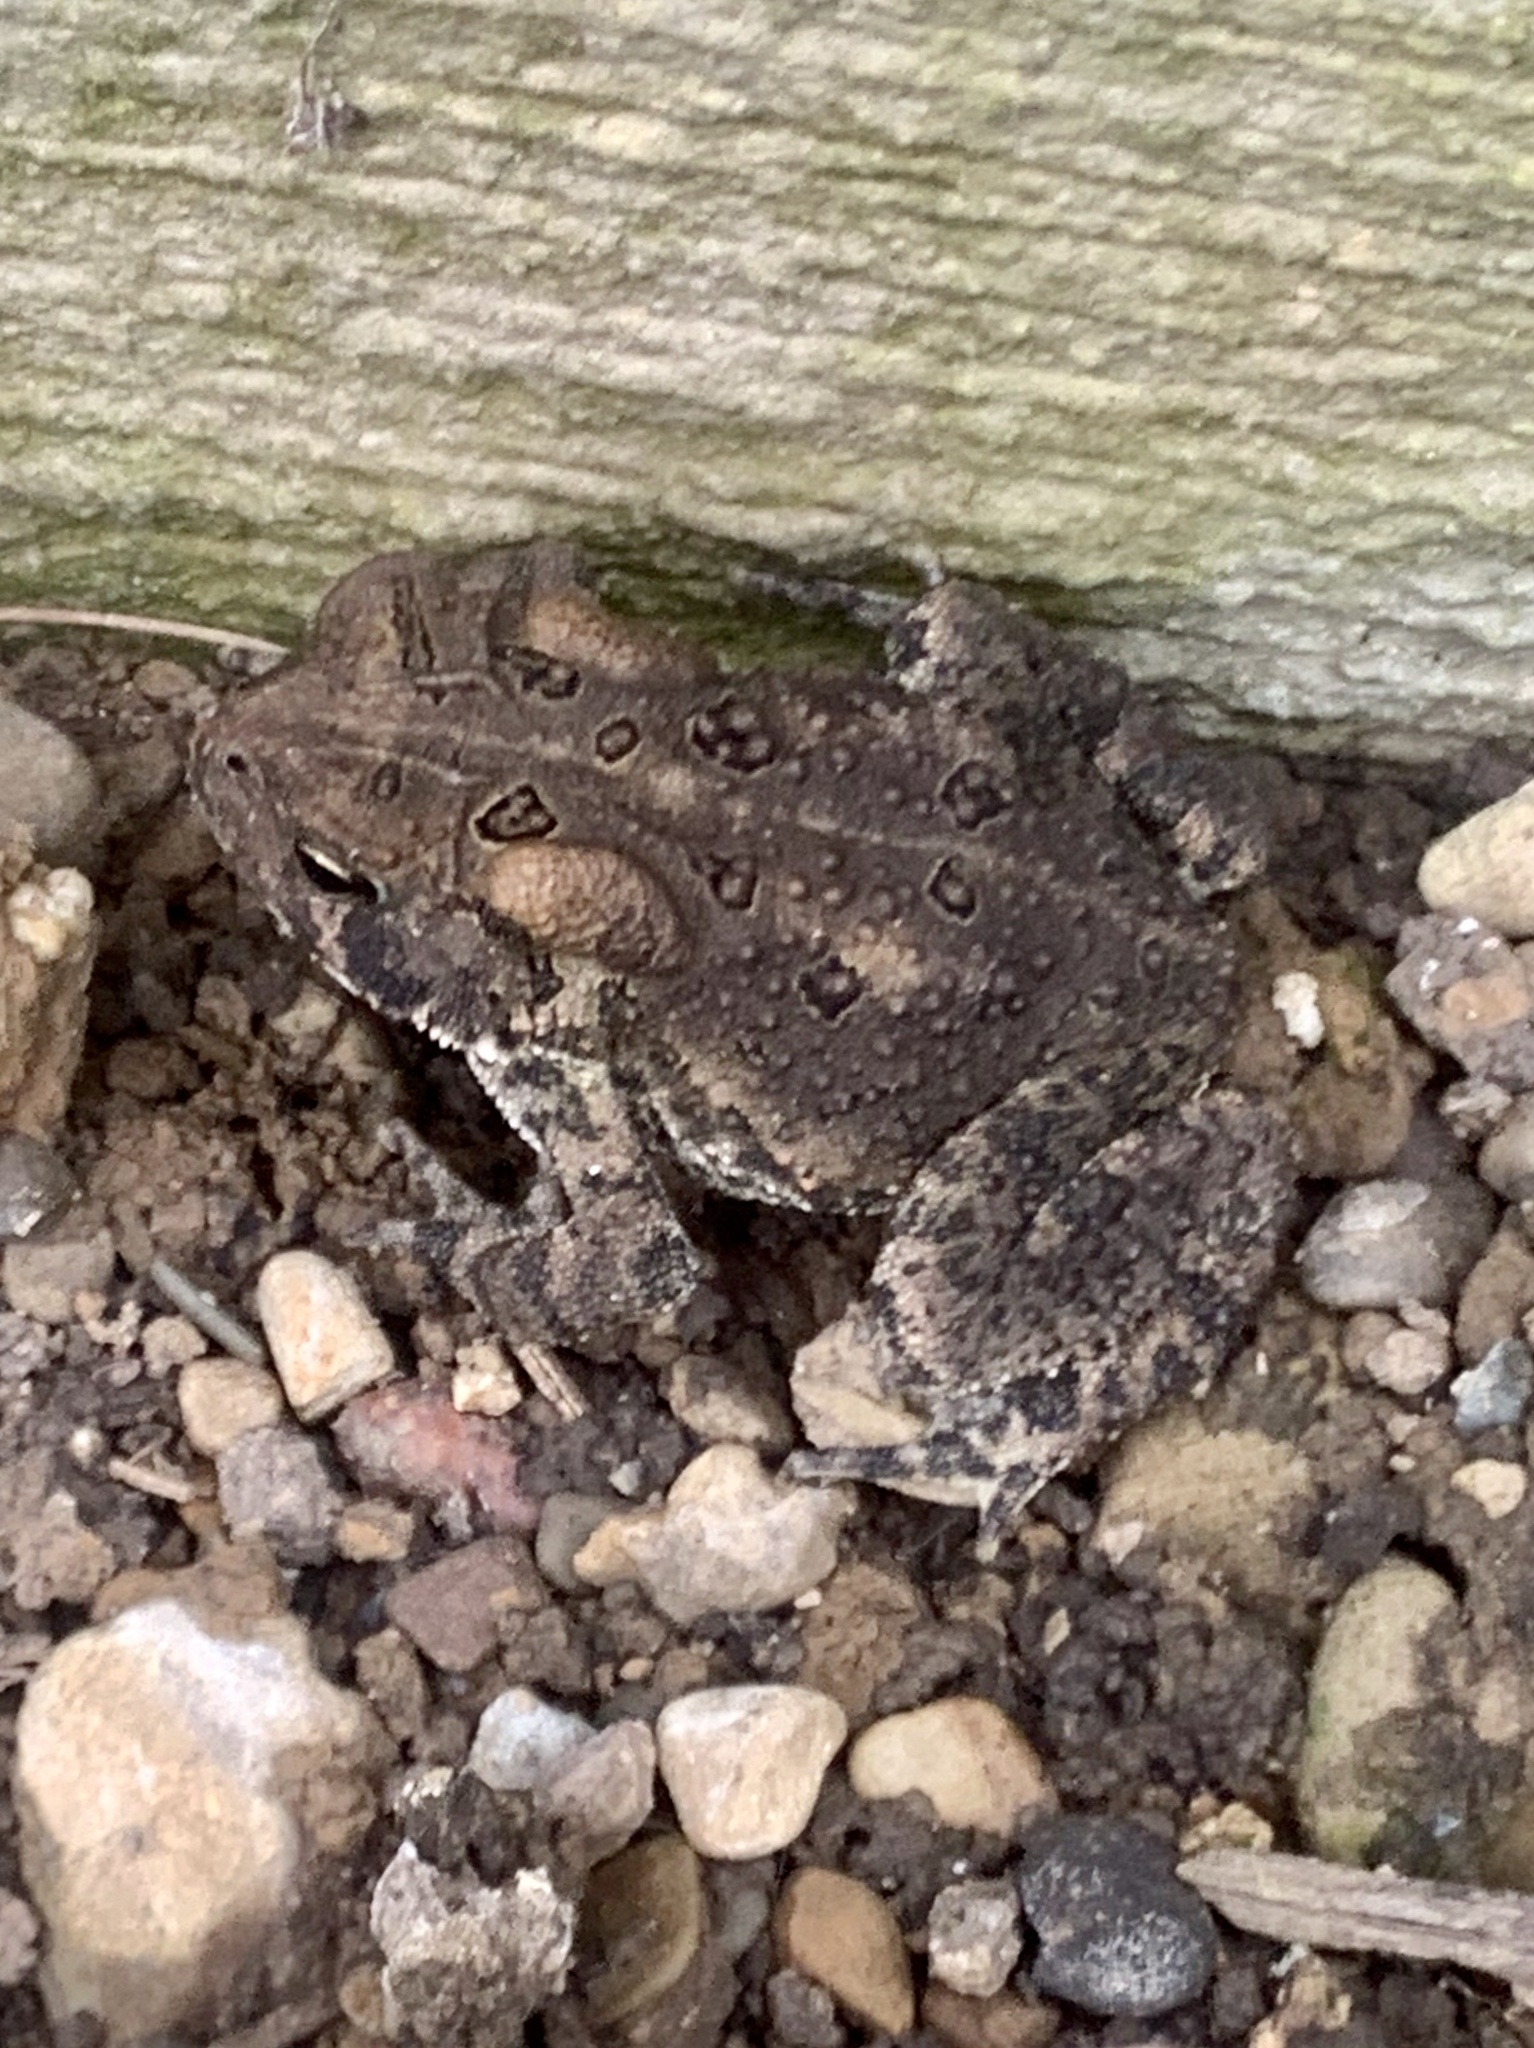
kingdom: Animalia
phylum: Chordata
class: Amphibia
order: Anura
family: Bufonidae
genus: Anaxyrus
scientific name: Anaxyrus americanus
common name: American toad
